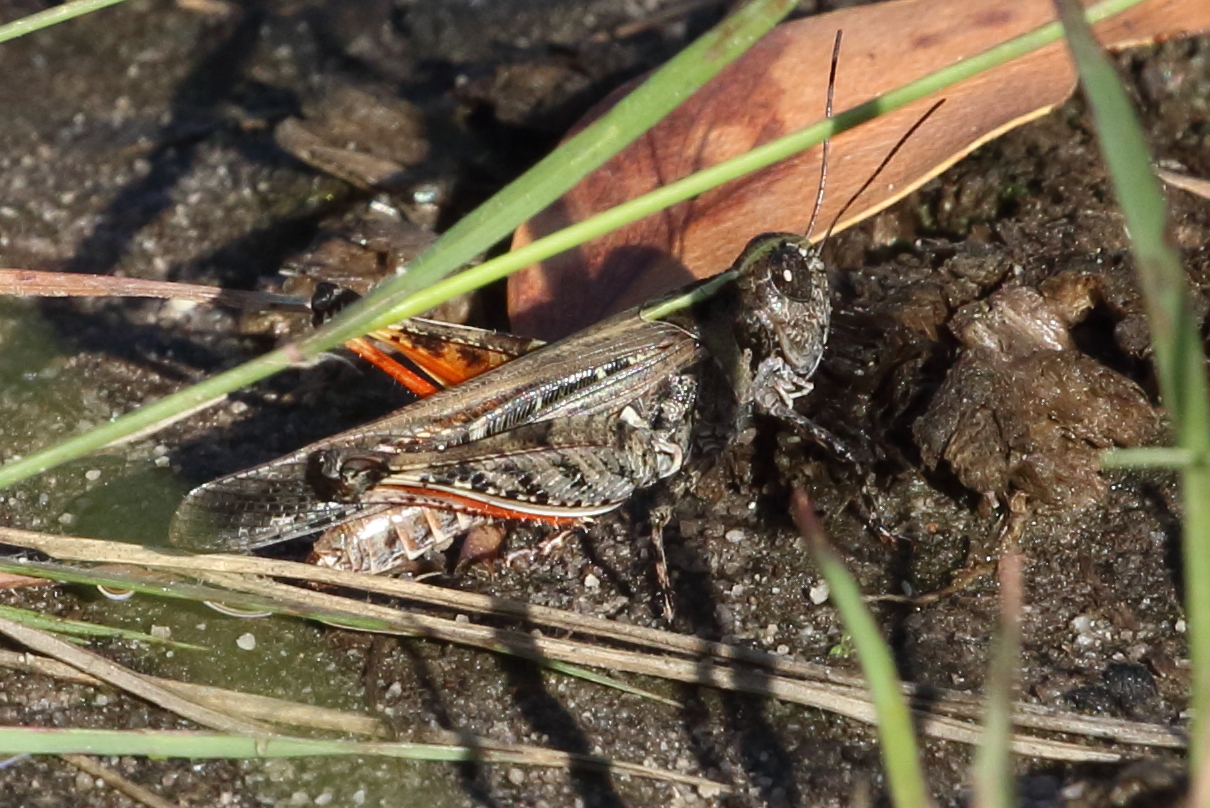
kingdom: Animalia
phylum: Arthropoda
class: Insecta
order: Orthoptera
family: Acrididae
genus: Heteropternis
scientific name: Heteropternis obscurella
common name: Long-legged bandwing
